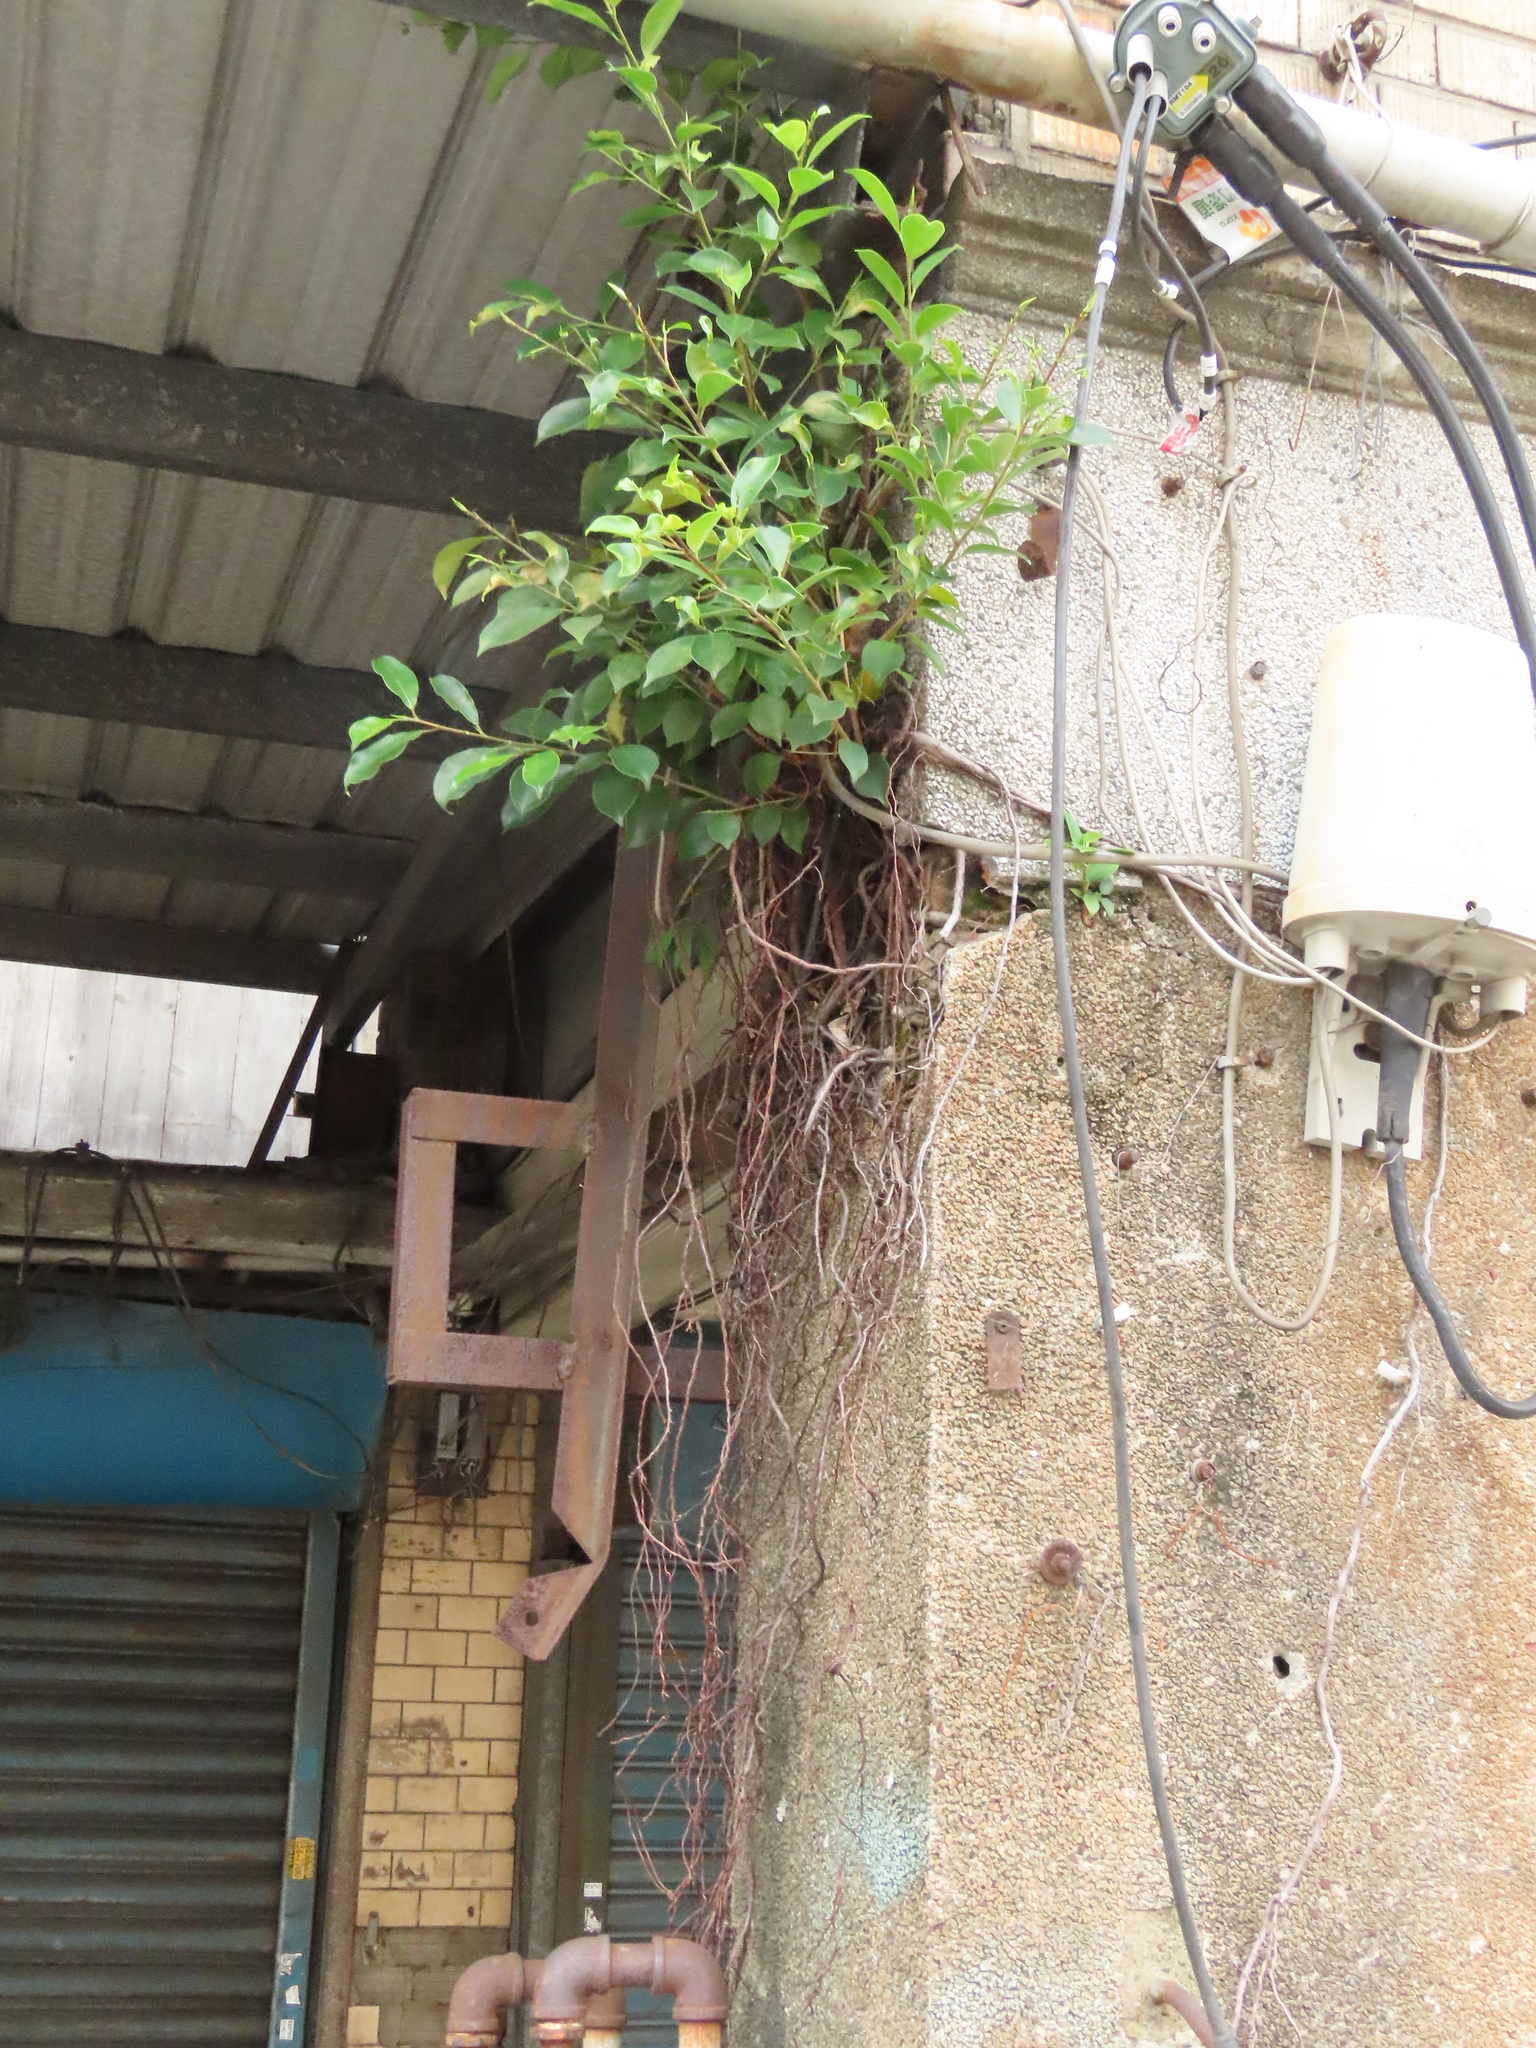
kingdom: Plantae
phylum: Tracheophyta
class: Magnoliopsida
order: Rosales
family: Moraceae
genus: Ficus
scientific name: Ficus microcarpa
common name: Chinese banyan
